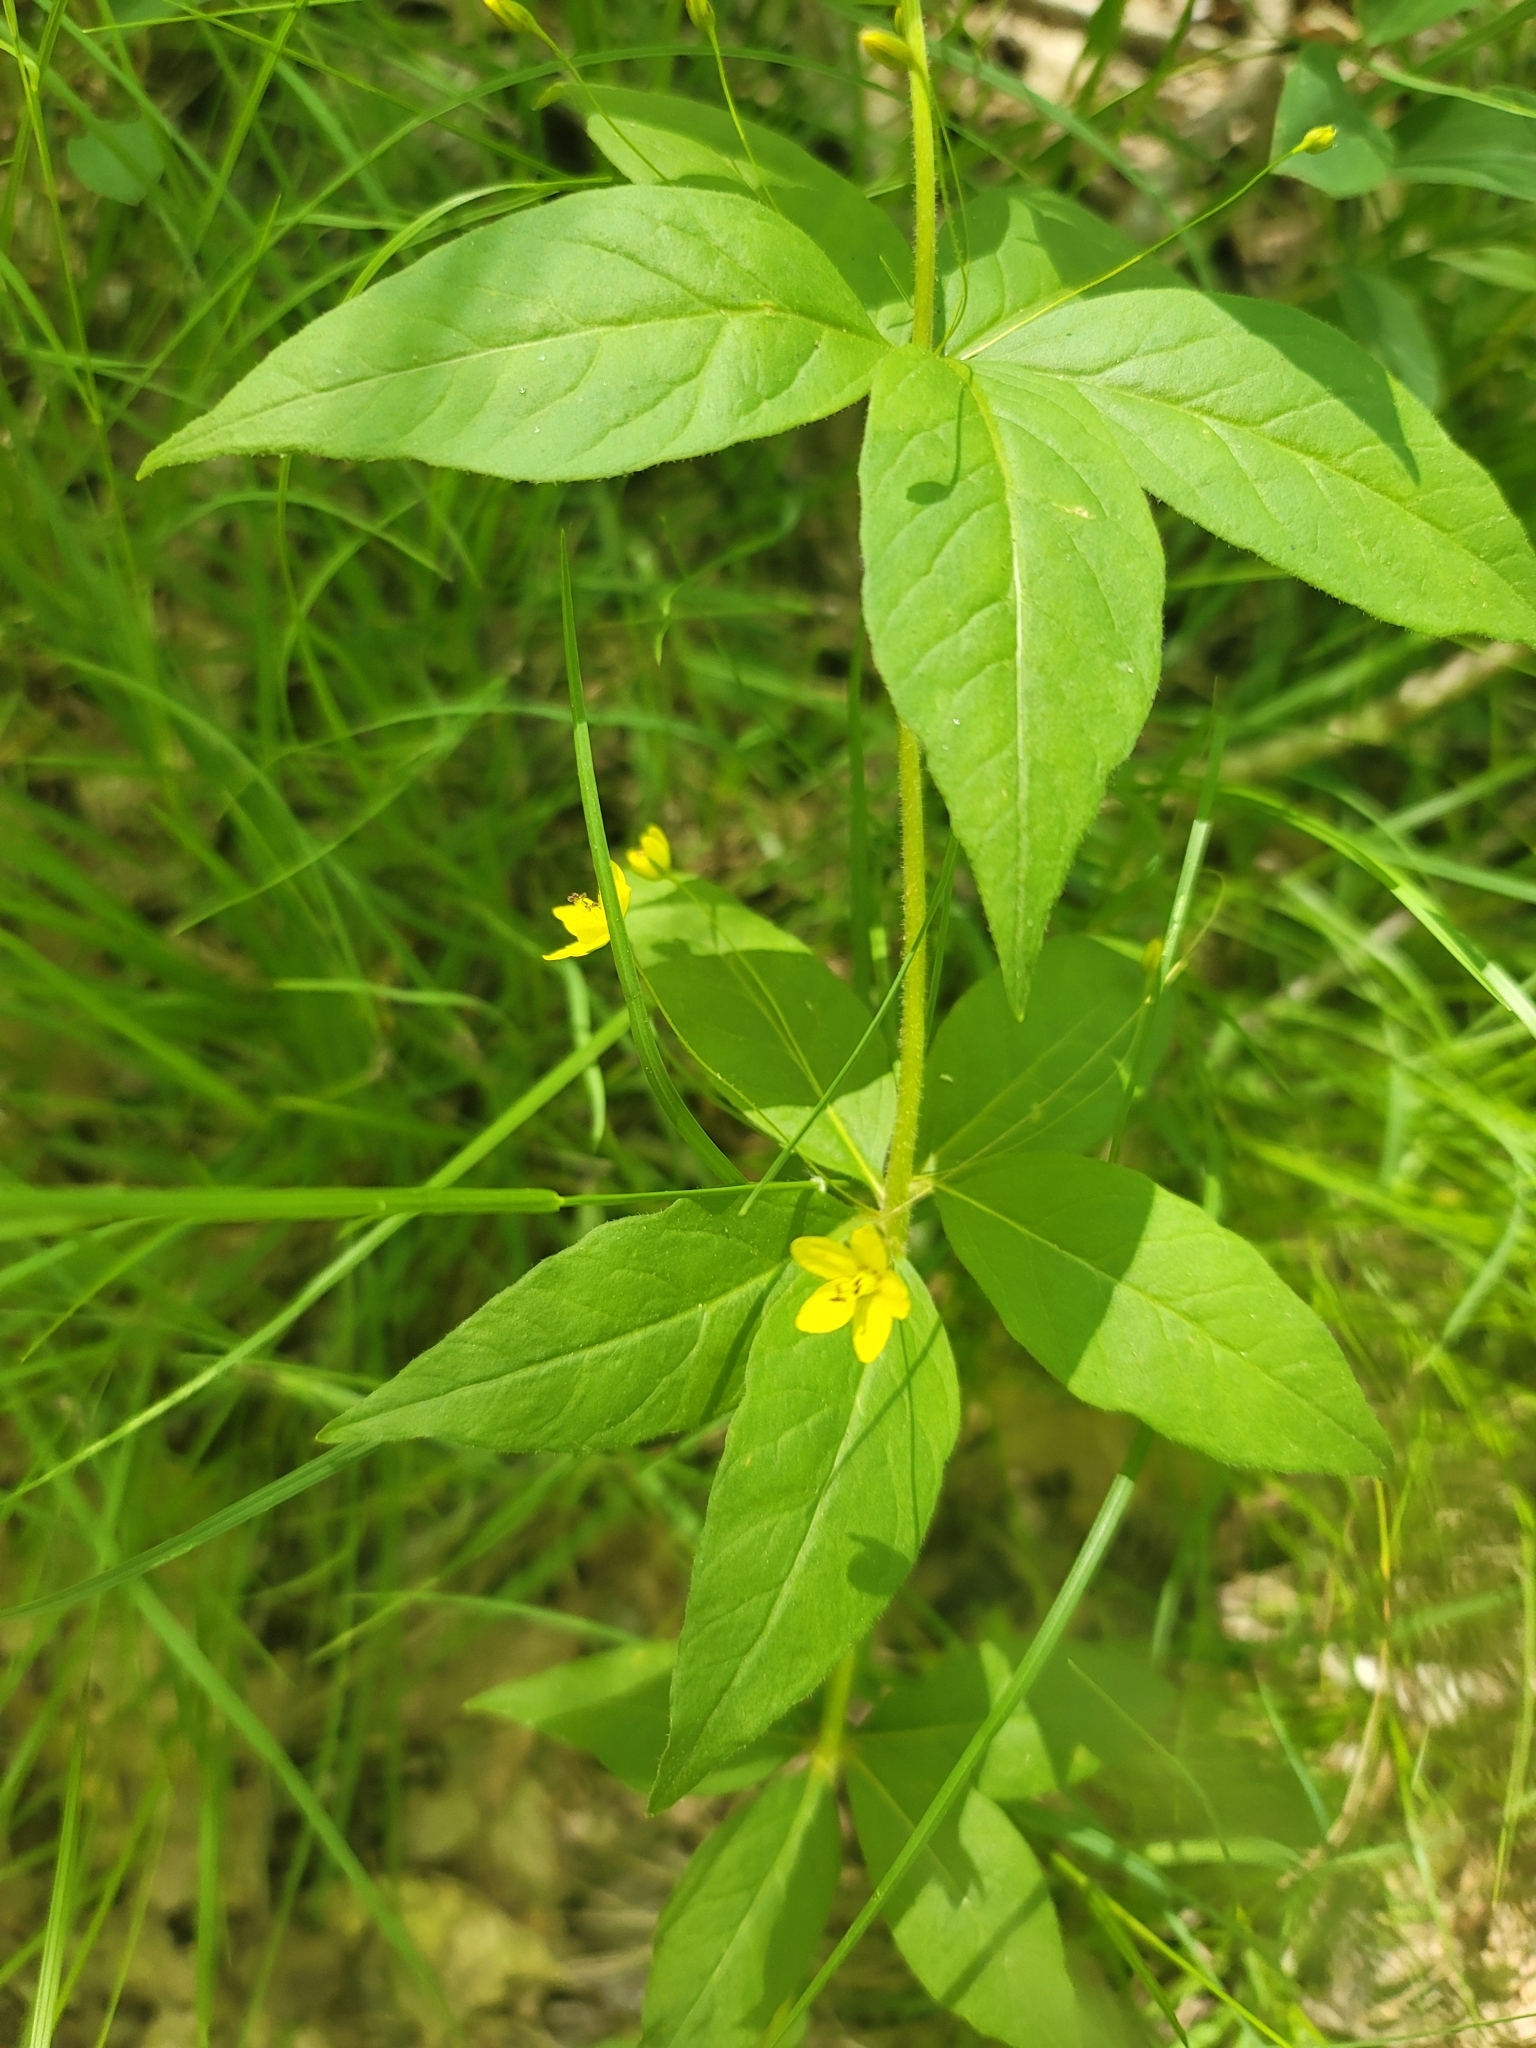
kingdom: Plantae
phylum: Tracheophyta
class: Magnoliopsida
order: Ericales
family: Primulaceae
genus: Lysimachia
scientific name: Lysimachia quadrifolia
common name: Whorled loosestrife
